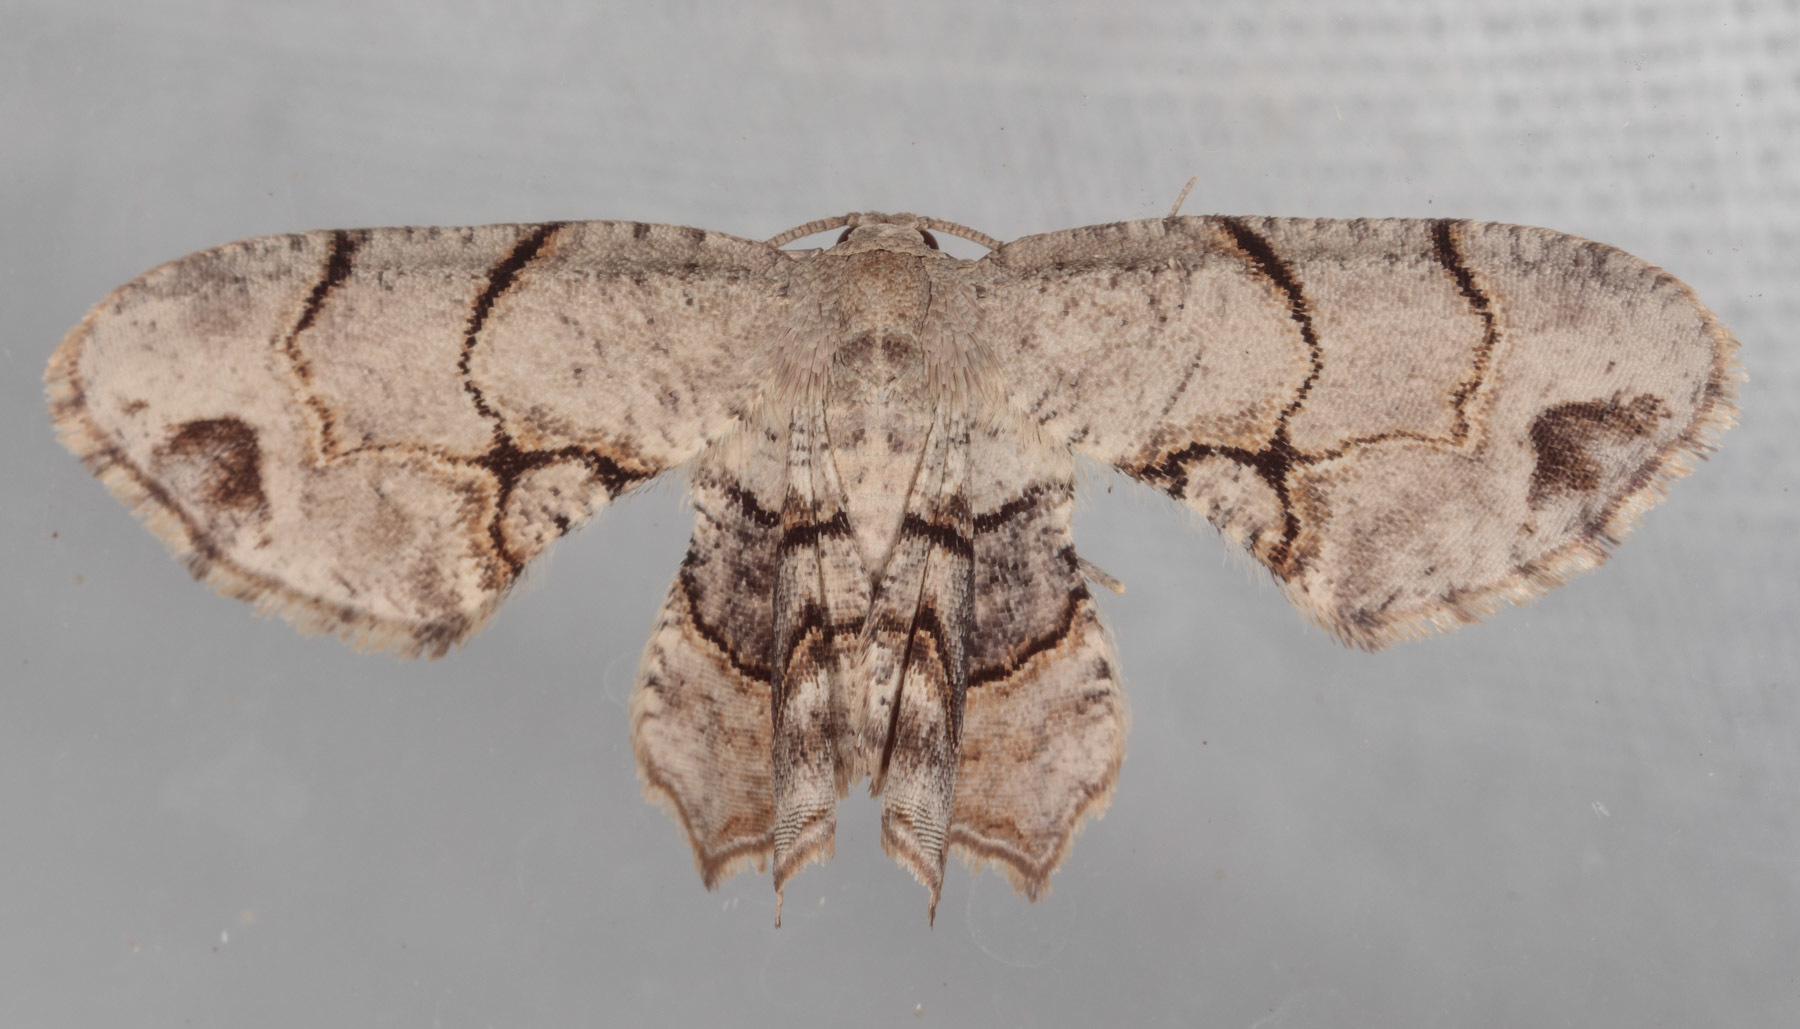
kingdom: Animalia
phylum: Arthropoda
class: Insecta
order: Lepidoptera
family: Uraniidae
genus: Epiplema
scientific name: Epiplema Callizzia amorata
